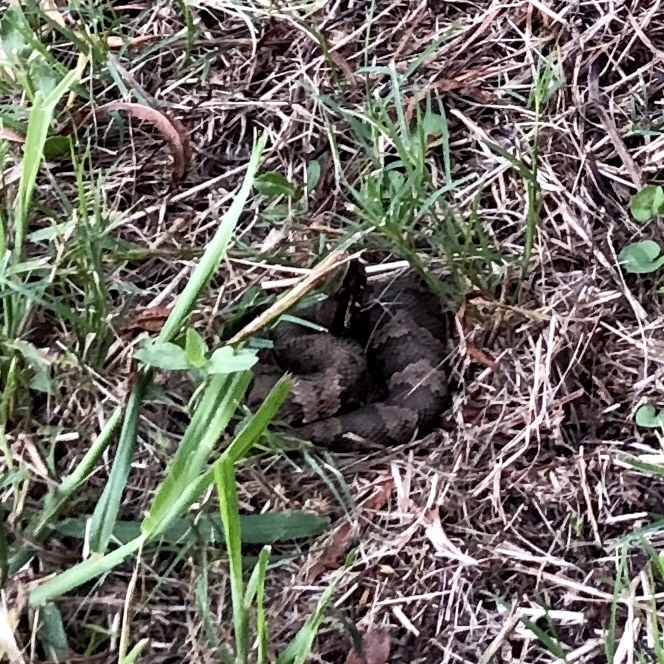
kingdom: Animalia
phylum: Chordata
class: Squamata
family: Viperidae
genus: Agkistrodon
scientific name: Agkistrodon piscivorus
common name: Cottonmouth
